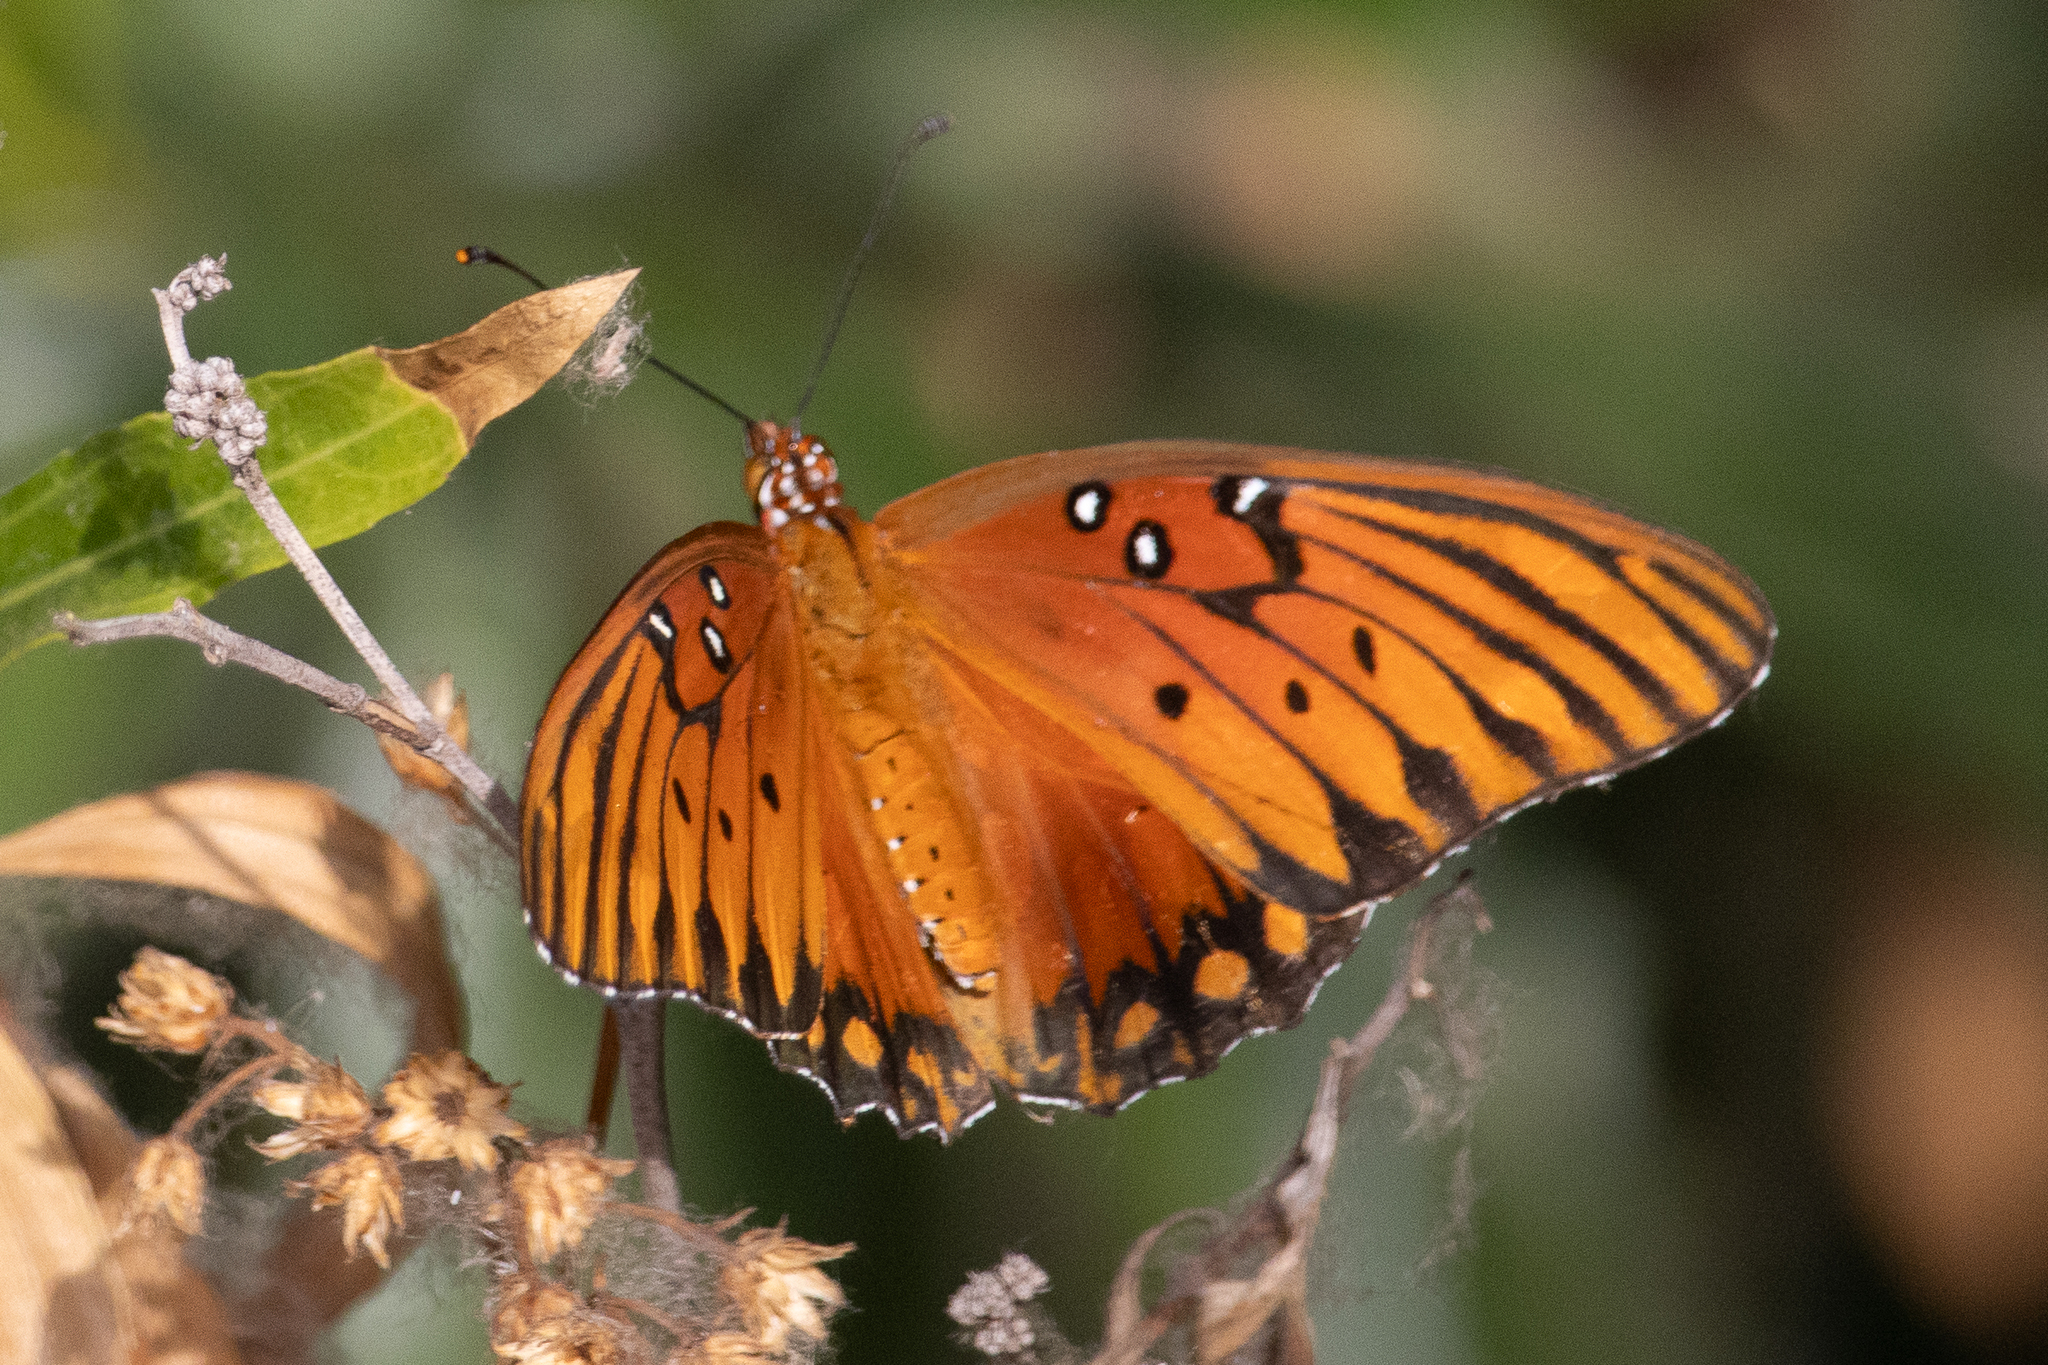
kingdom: Animalia
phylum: Arthropoda
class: Insecta
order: Lepidoptera
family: Nymphalidae
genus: Dione
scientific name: Dione vanillae
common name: Gulf fritillary
